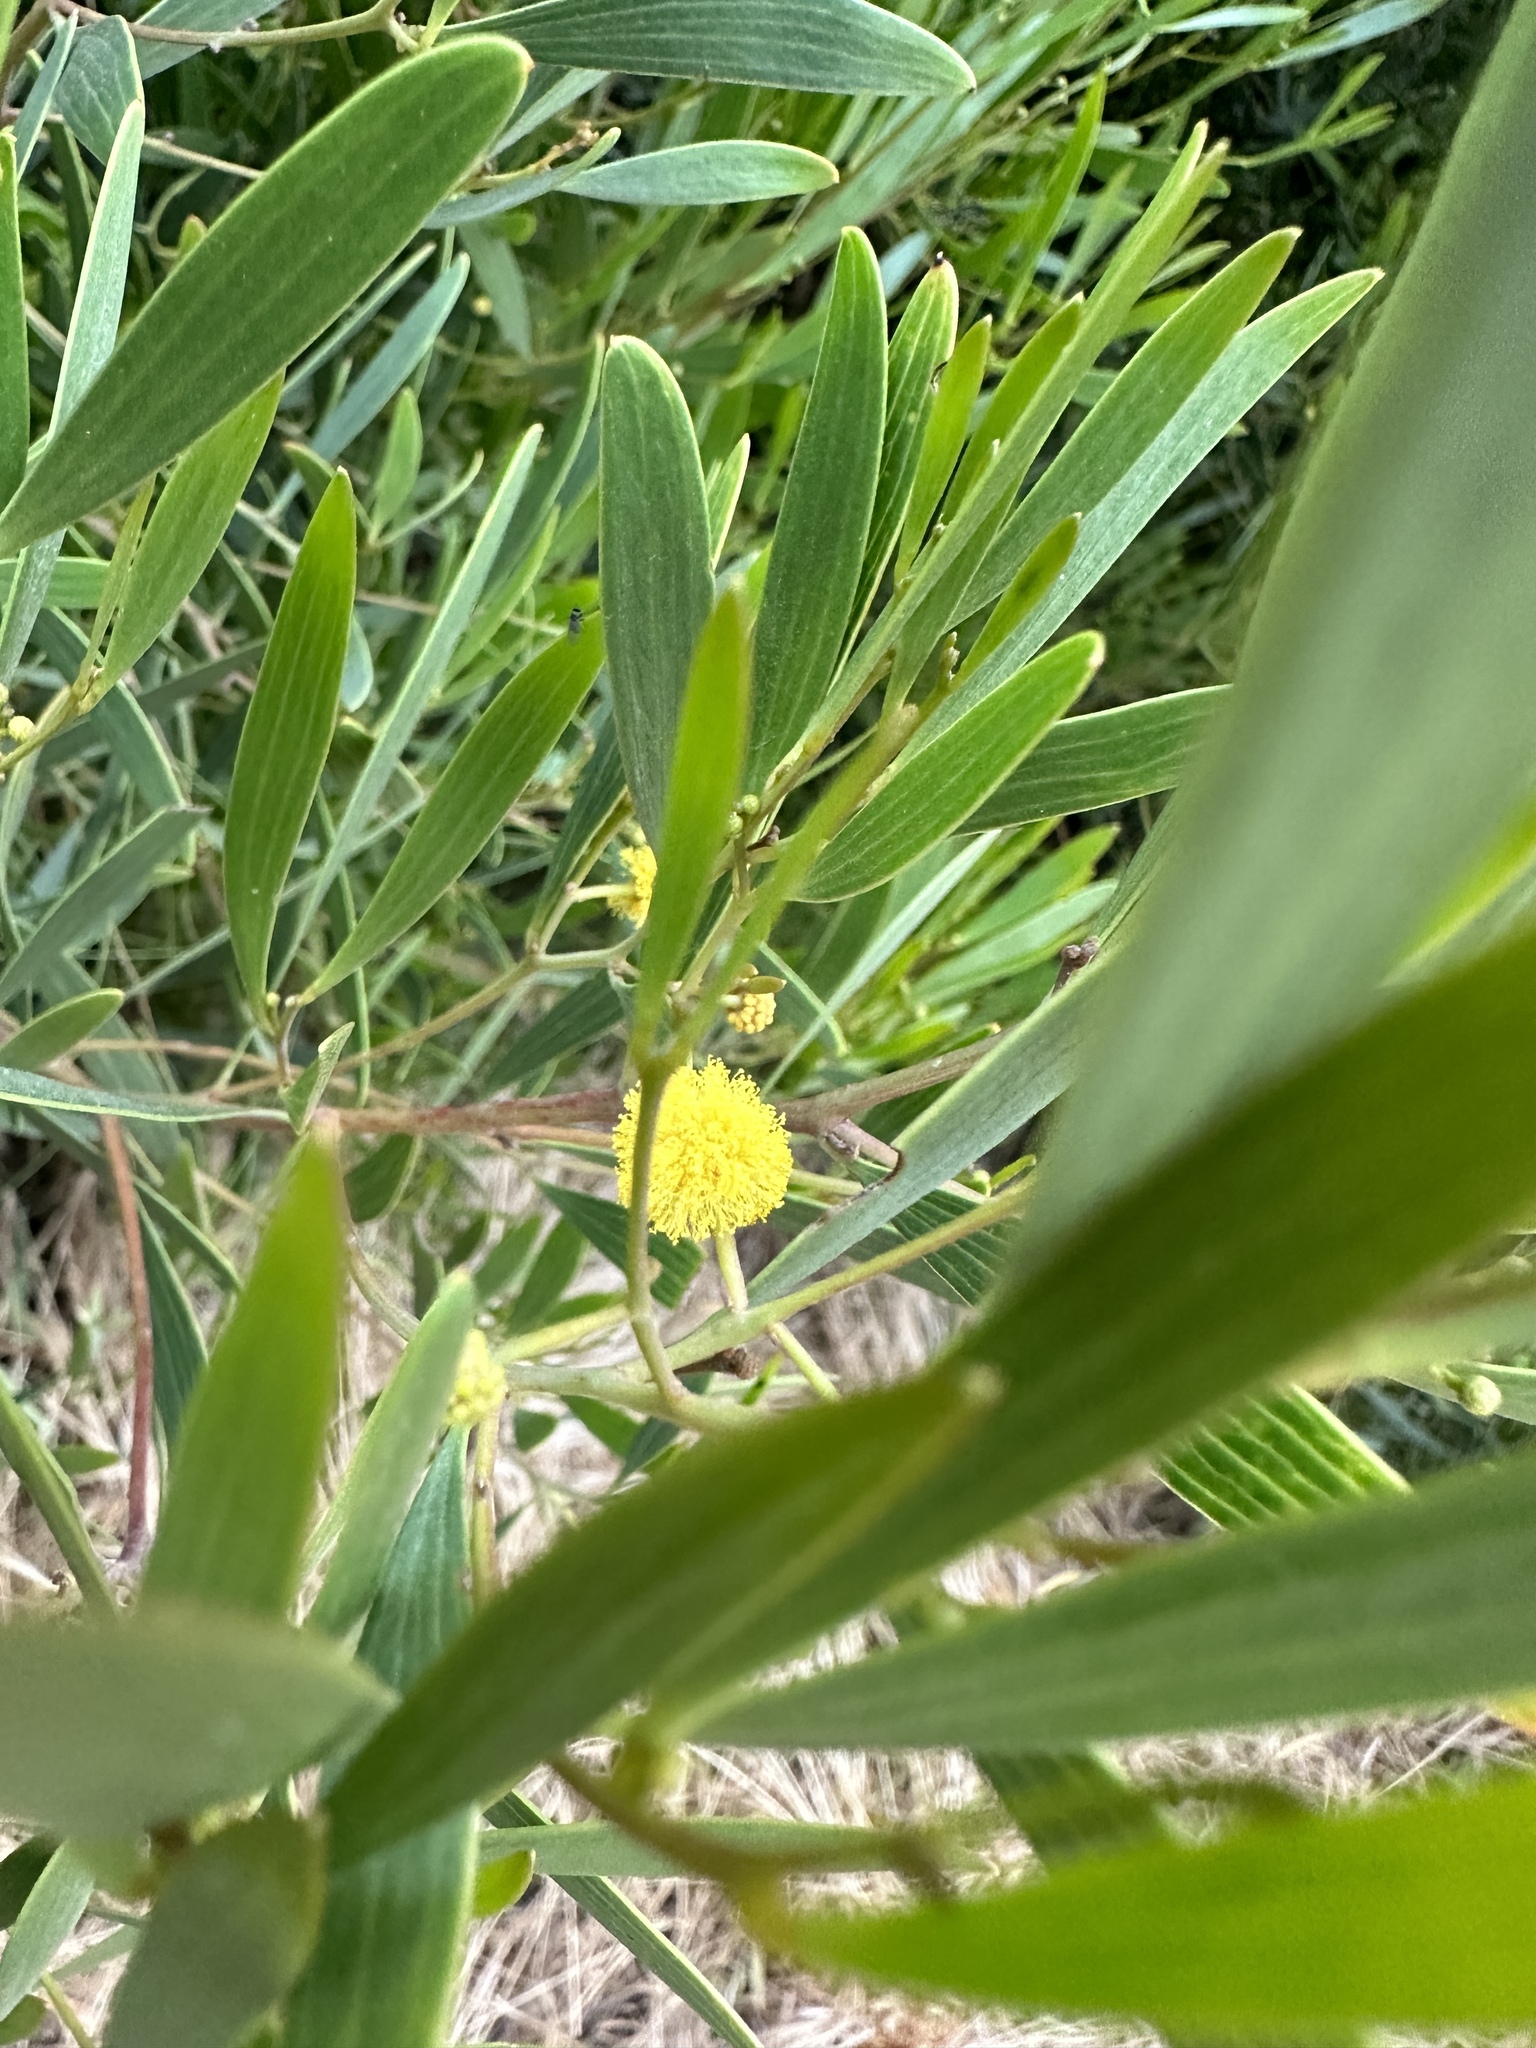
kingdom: Plantae
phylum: Tracheophyta
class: Magnoliopsida
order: Fabales
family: Fabaceae
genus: Acacia
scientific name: Acacia cyclops
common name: Coastal wattle
